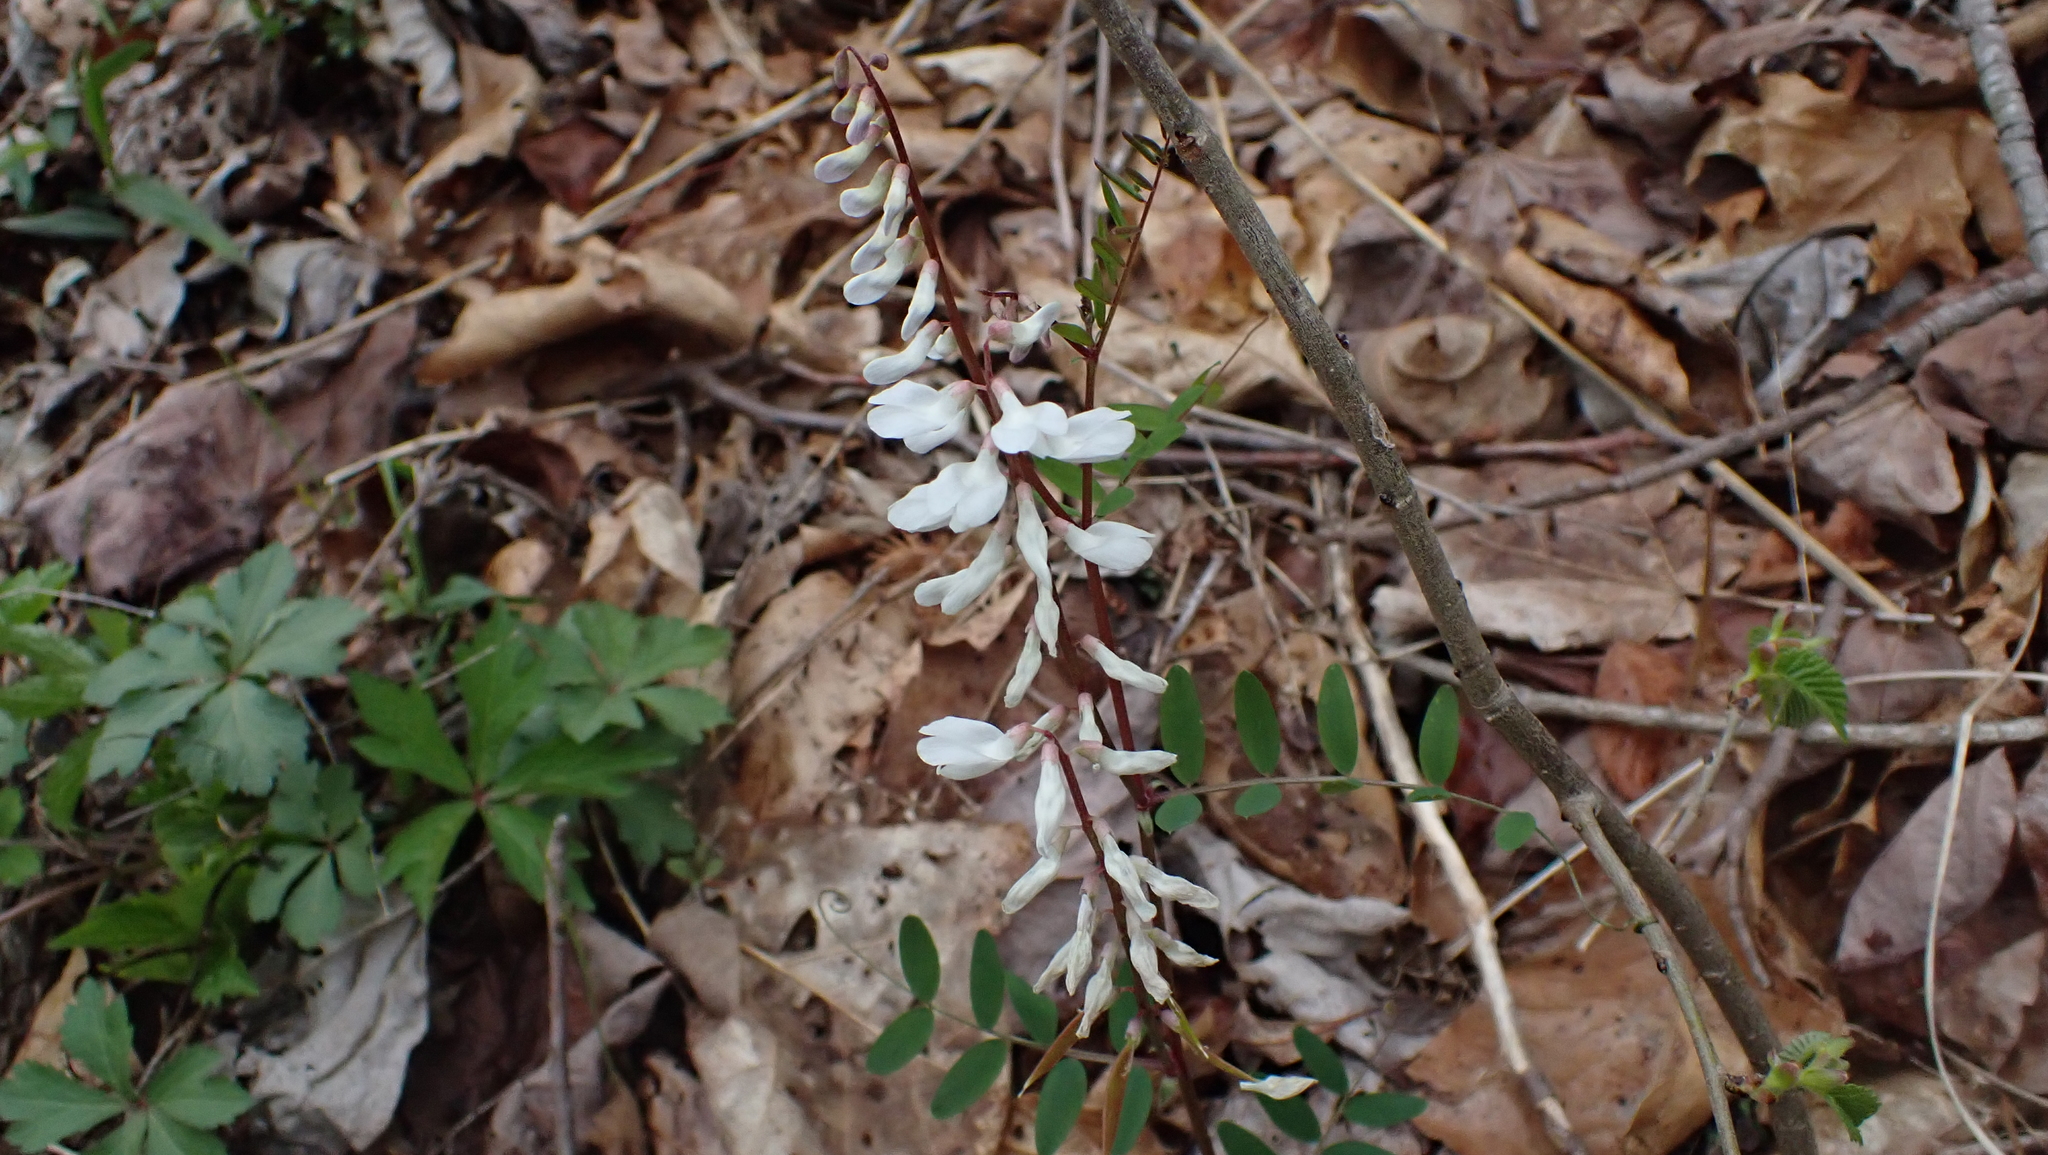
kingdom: Plantae
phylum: Tracheophyta
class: Magnoliopsida
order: Fabales
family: Fabaceae
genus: Vicia
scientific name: Vicia caroliniana
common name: Carolina vetch
